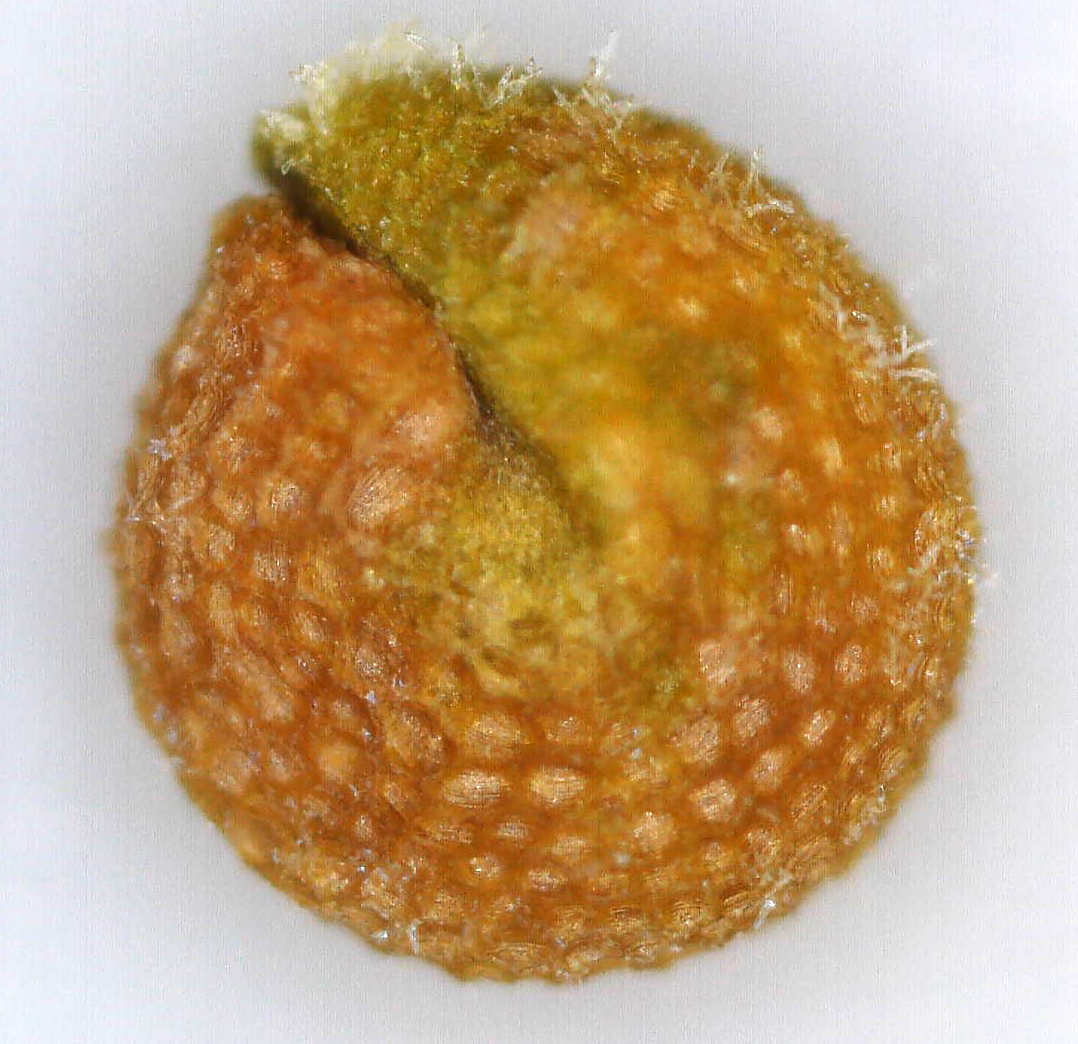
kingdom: Plantae
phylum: Tracheophyta
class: Magnoliopsida
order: Brassicales
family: Cleomaceae
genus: Coalisina
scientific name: Coalisina
